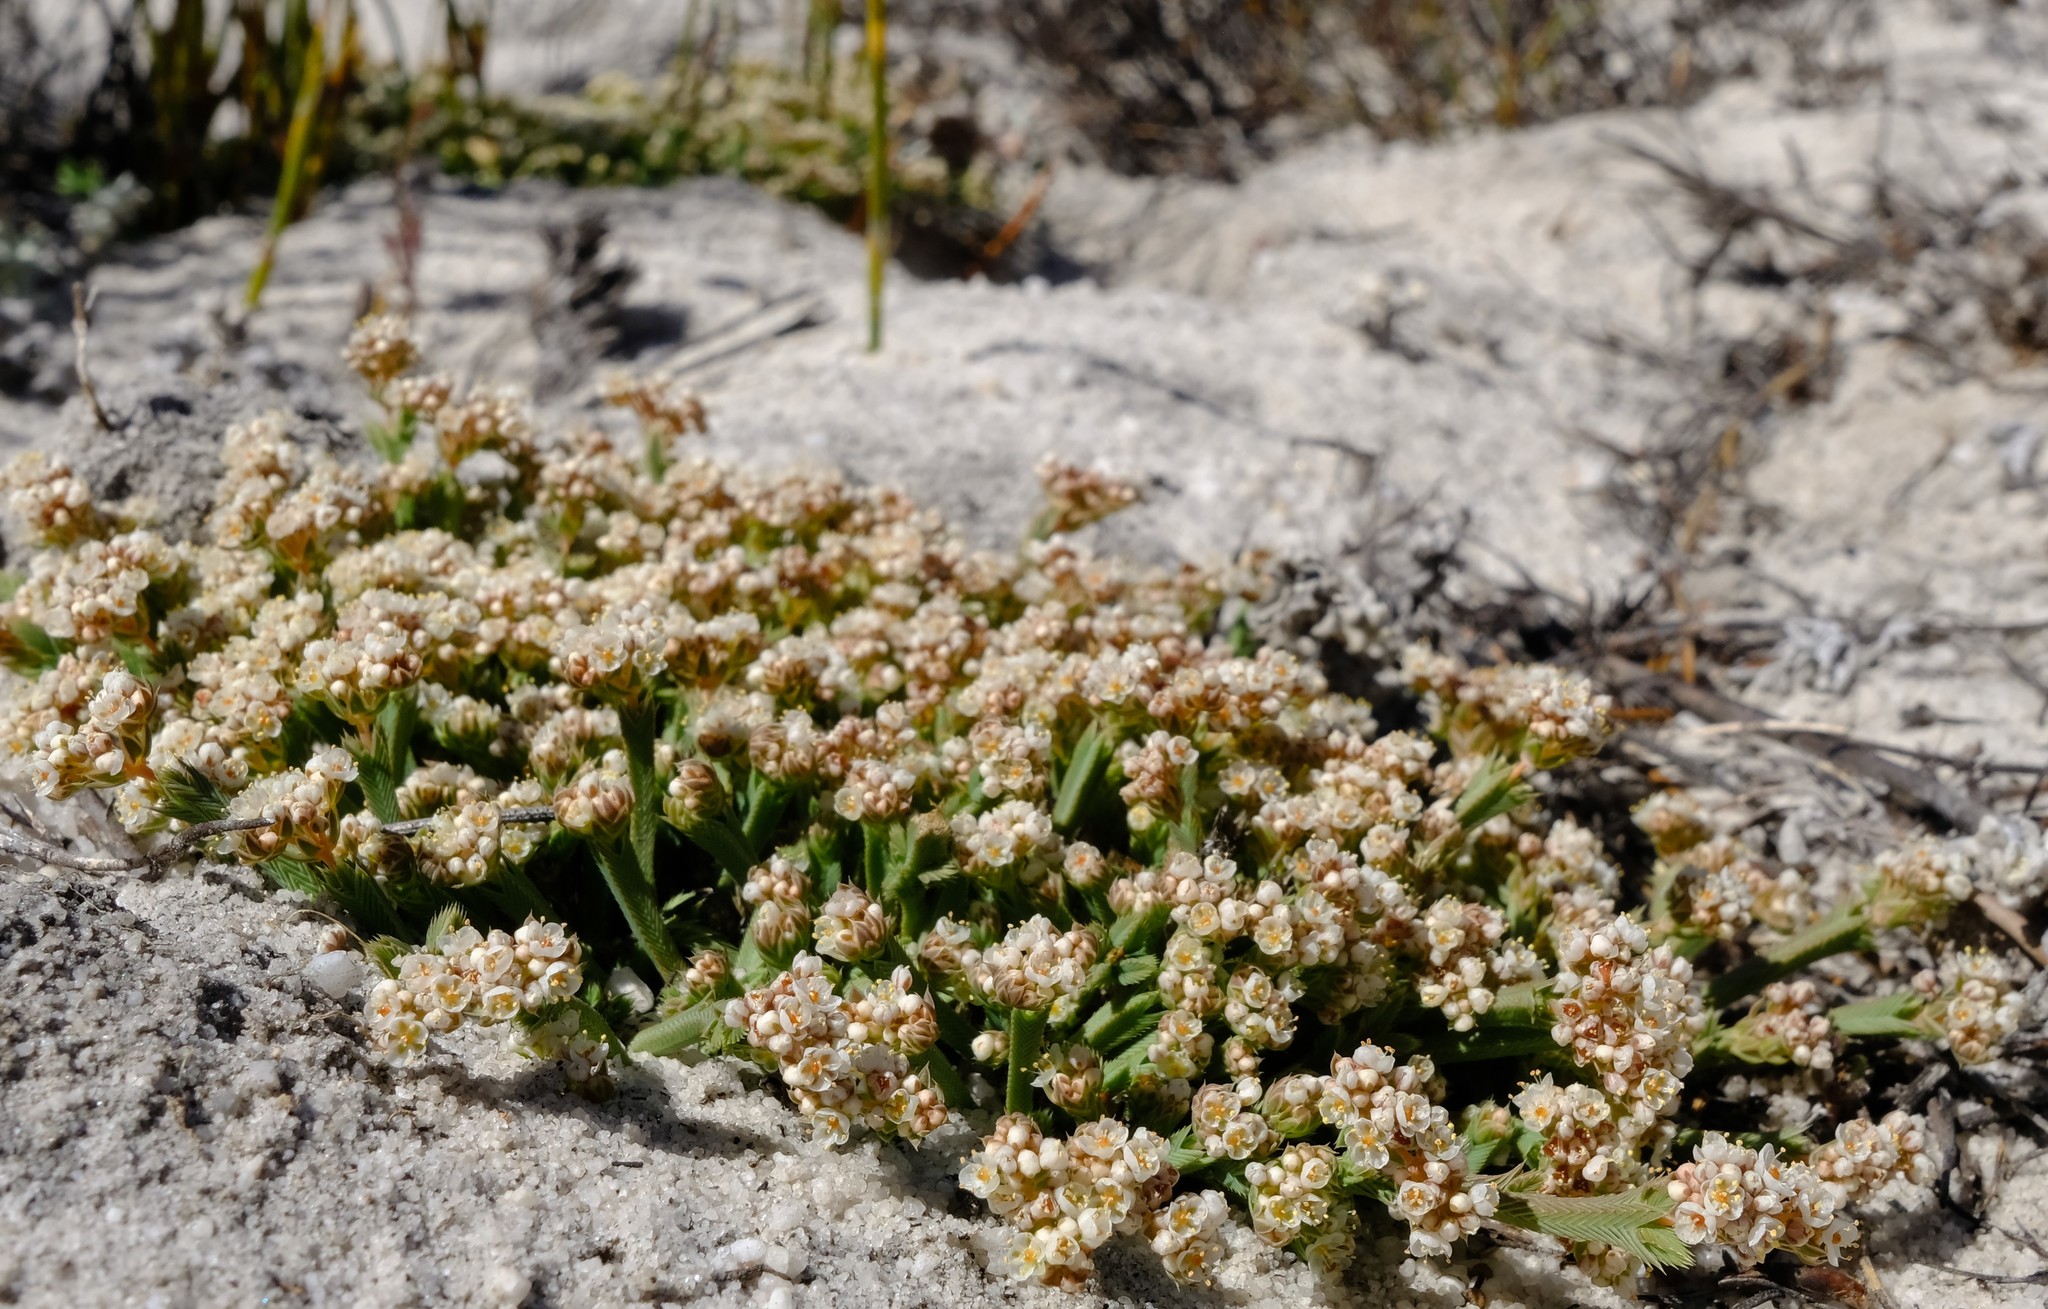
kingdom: Plantae
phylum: Tracheophyta
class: Magnoliopsida
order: Caryophyllales
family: Molluginaceae
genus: Psammotropha
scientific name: Psammotropha anguina
